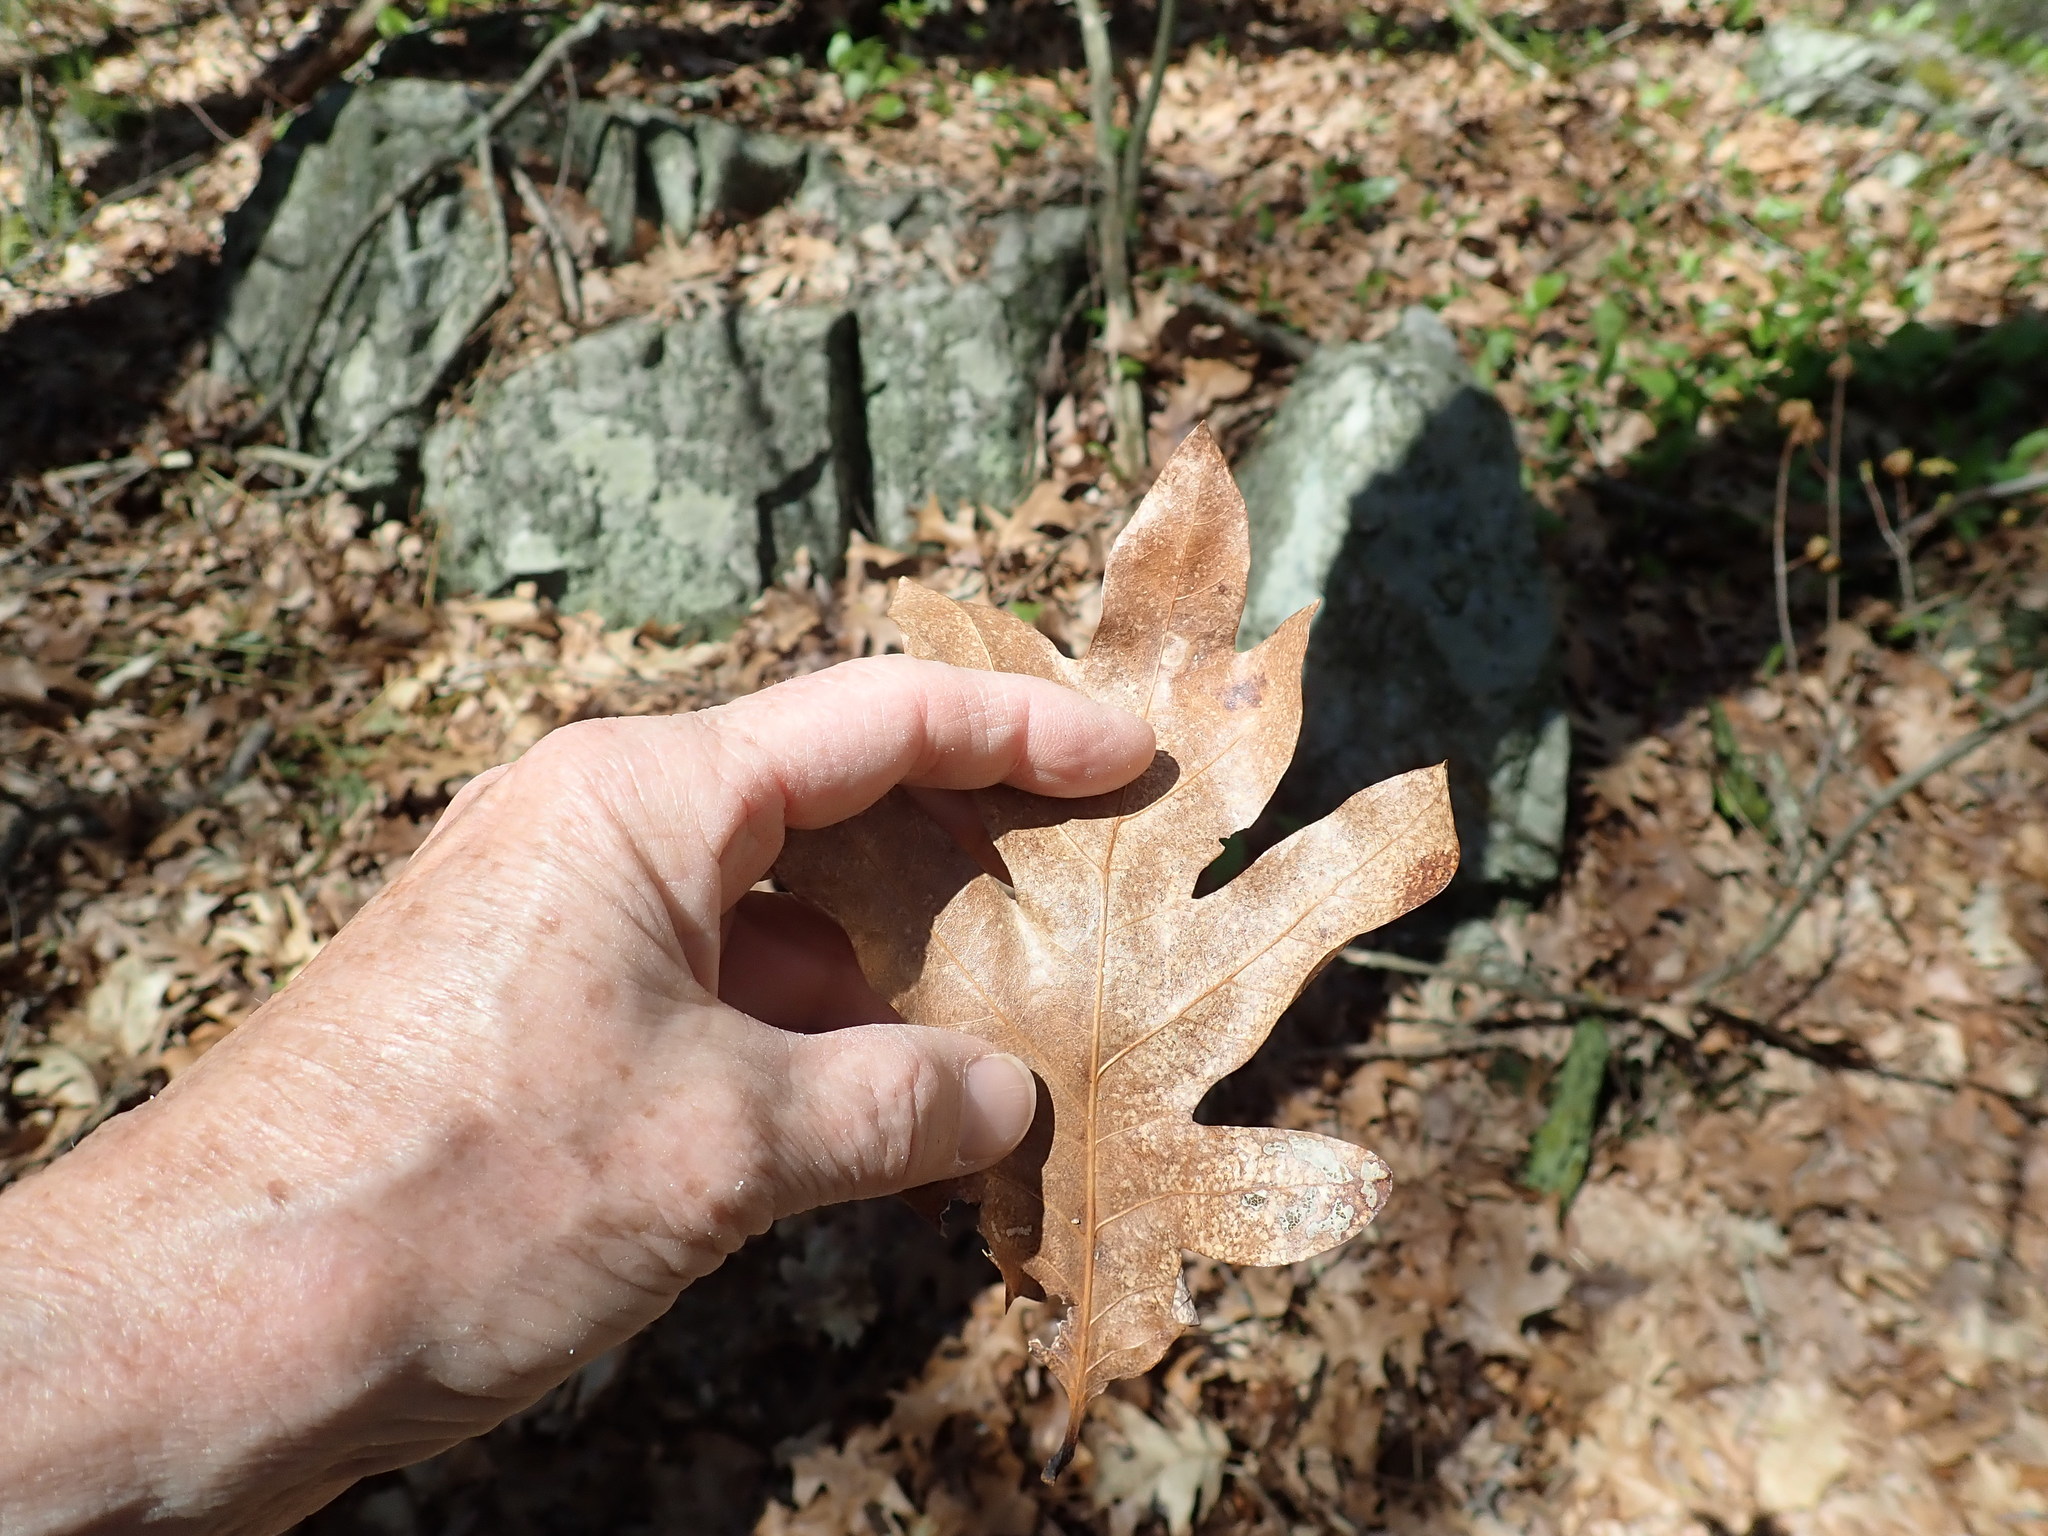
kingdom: Plantae
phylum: Tracheophyta
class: Magnoliopsida
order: Fagales
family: Fagaceae
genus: Quercus
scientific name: Quercus alba
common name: White oak
